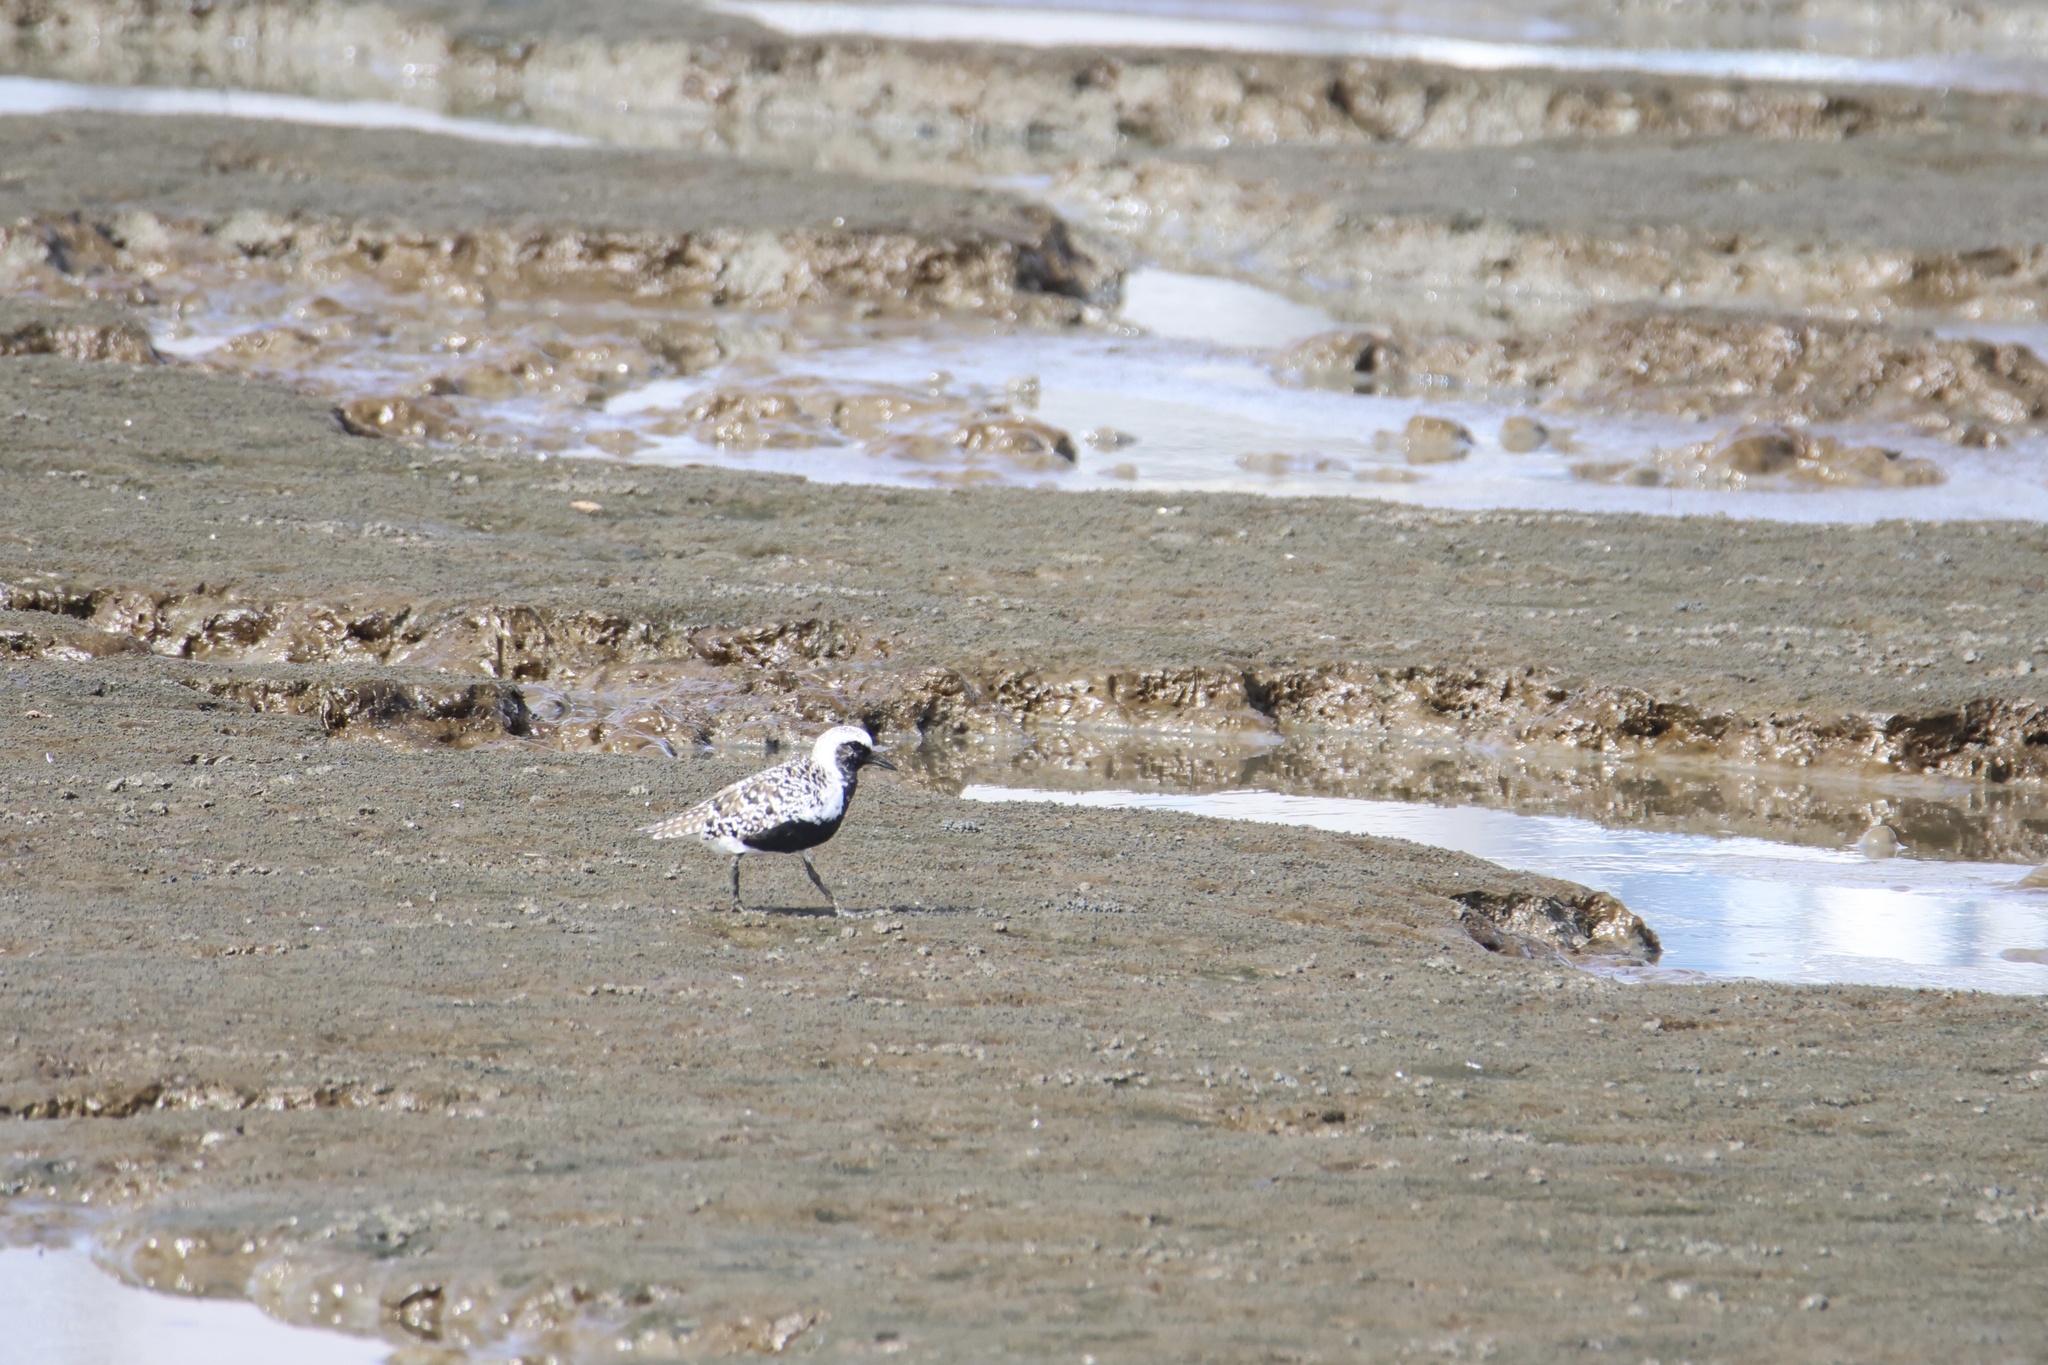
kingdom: Animalia
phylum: Chordata
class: Aves
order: Charadriiformes
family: Charadriidae
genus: Pluvialis
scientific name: Pluvialis squatarola
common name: Grey plover
